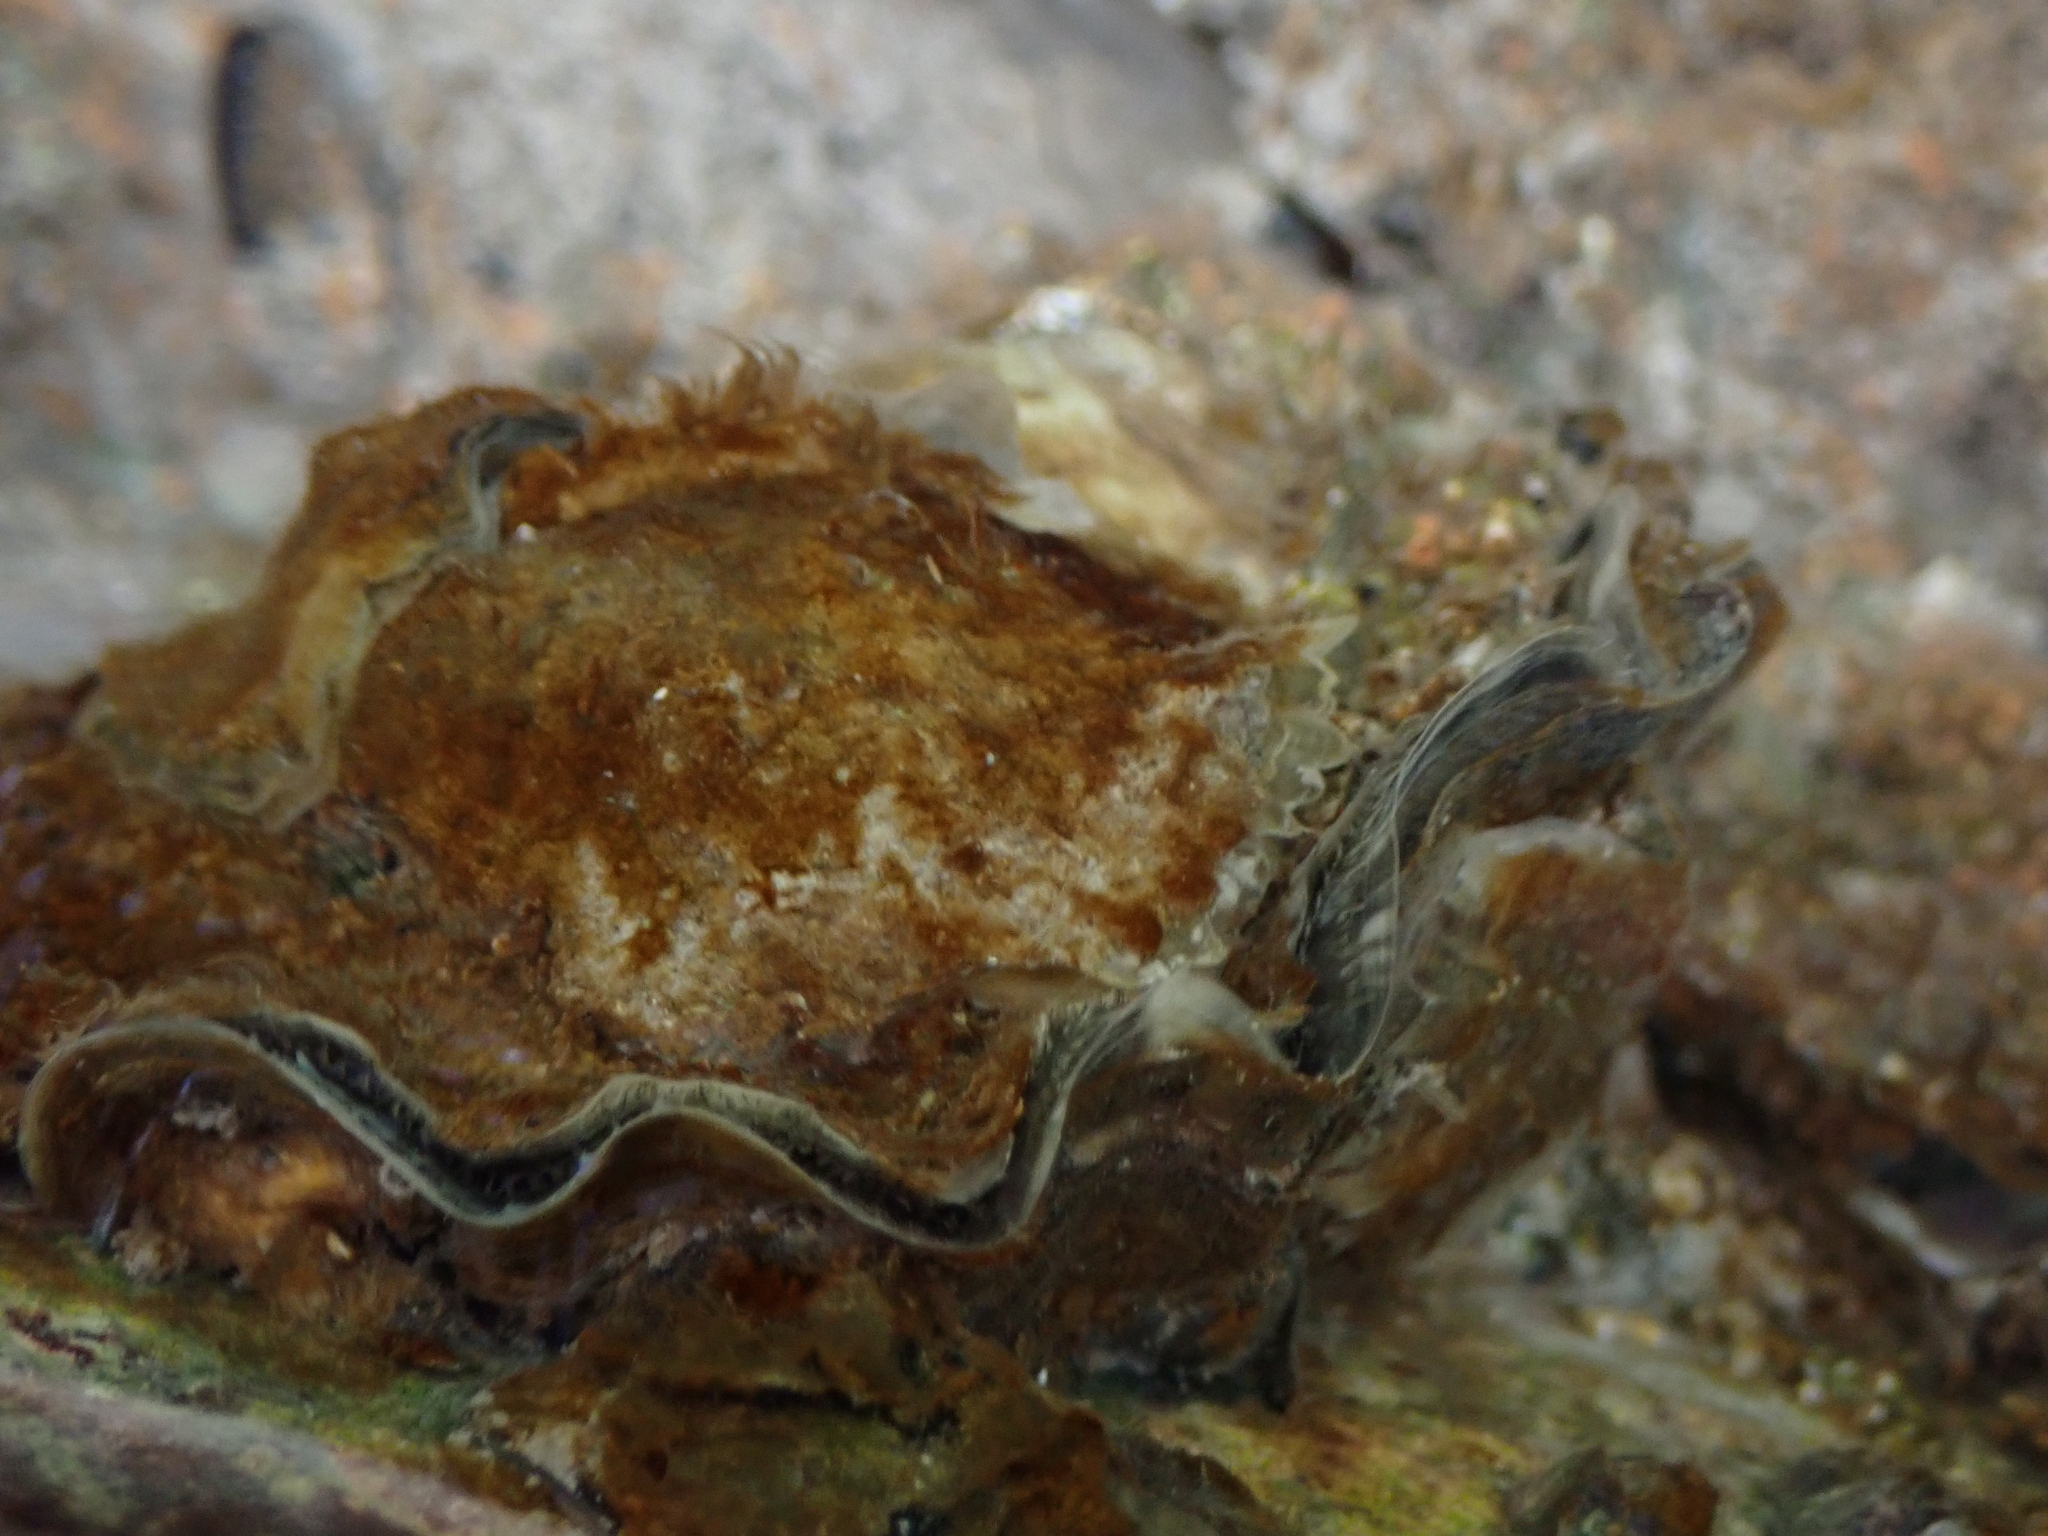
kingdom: Animalia
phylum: Mollusca
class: Bivalvia
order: Ostreida
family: Ostreidae
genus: Magallana
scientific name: Magallana gigas
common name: Pacific oyster
